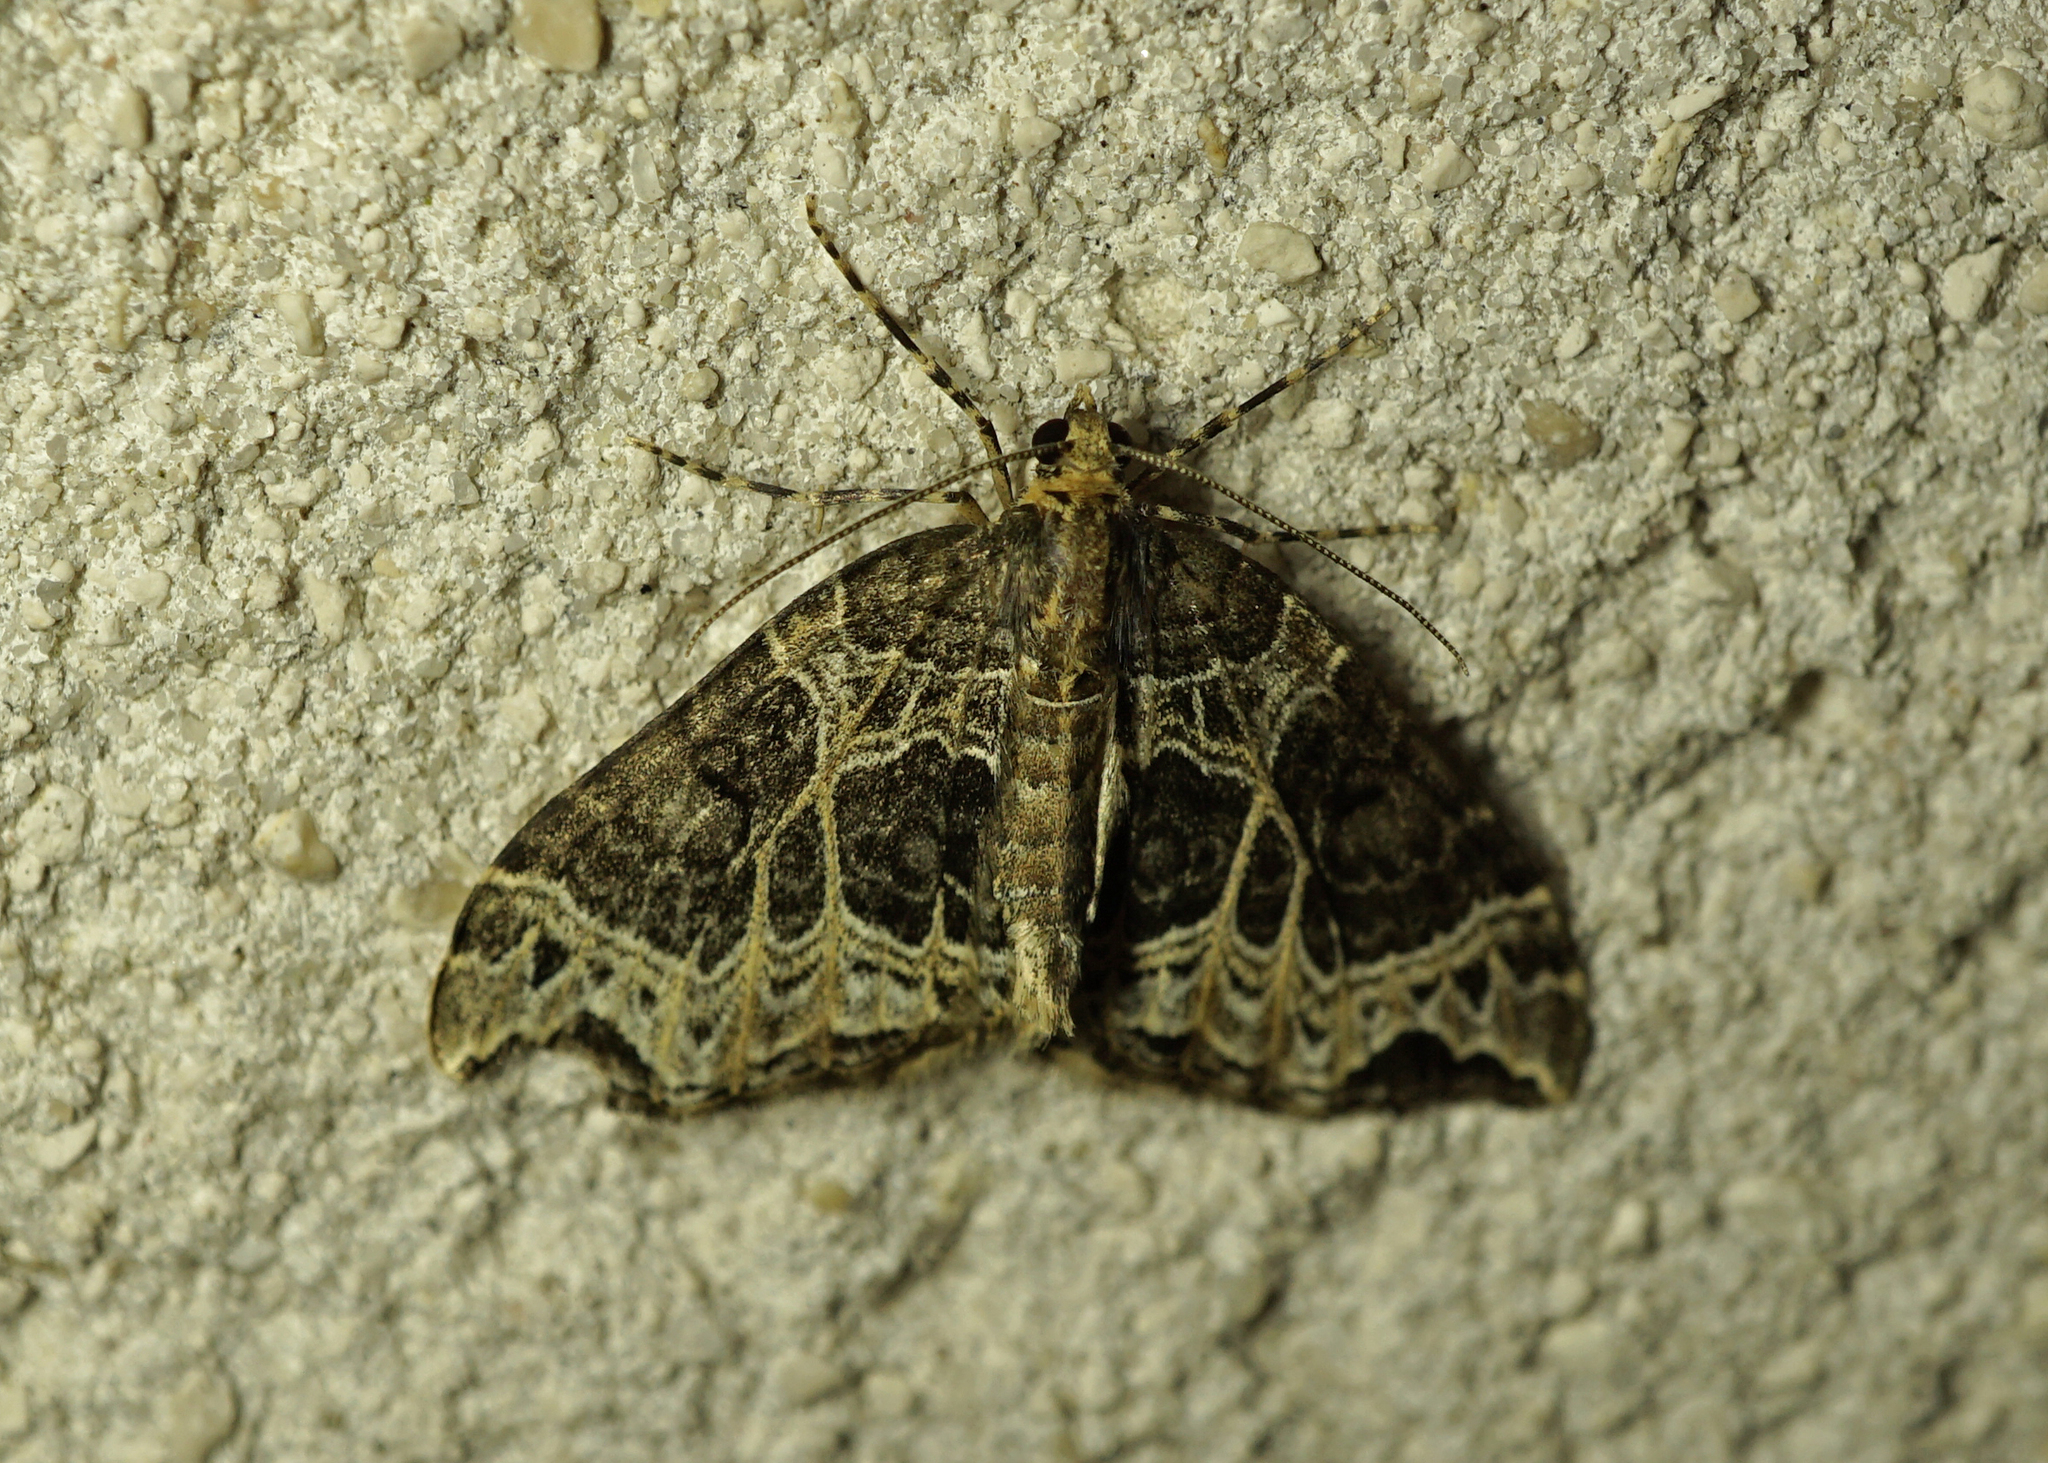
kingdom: Animalia
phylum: Arthropoda
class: Insecta
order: Lepidoptera
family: Geometridae
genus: Ecliptopera
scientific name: Ecliptopera silaceata
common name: Small phoenix
